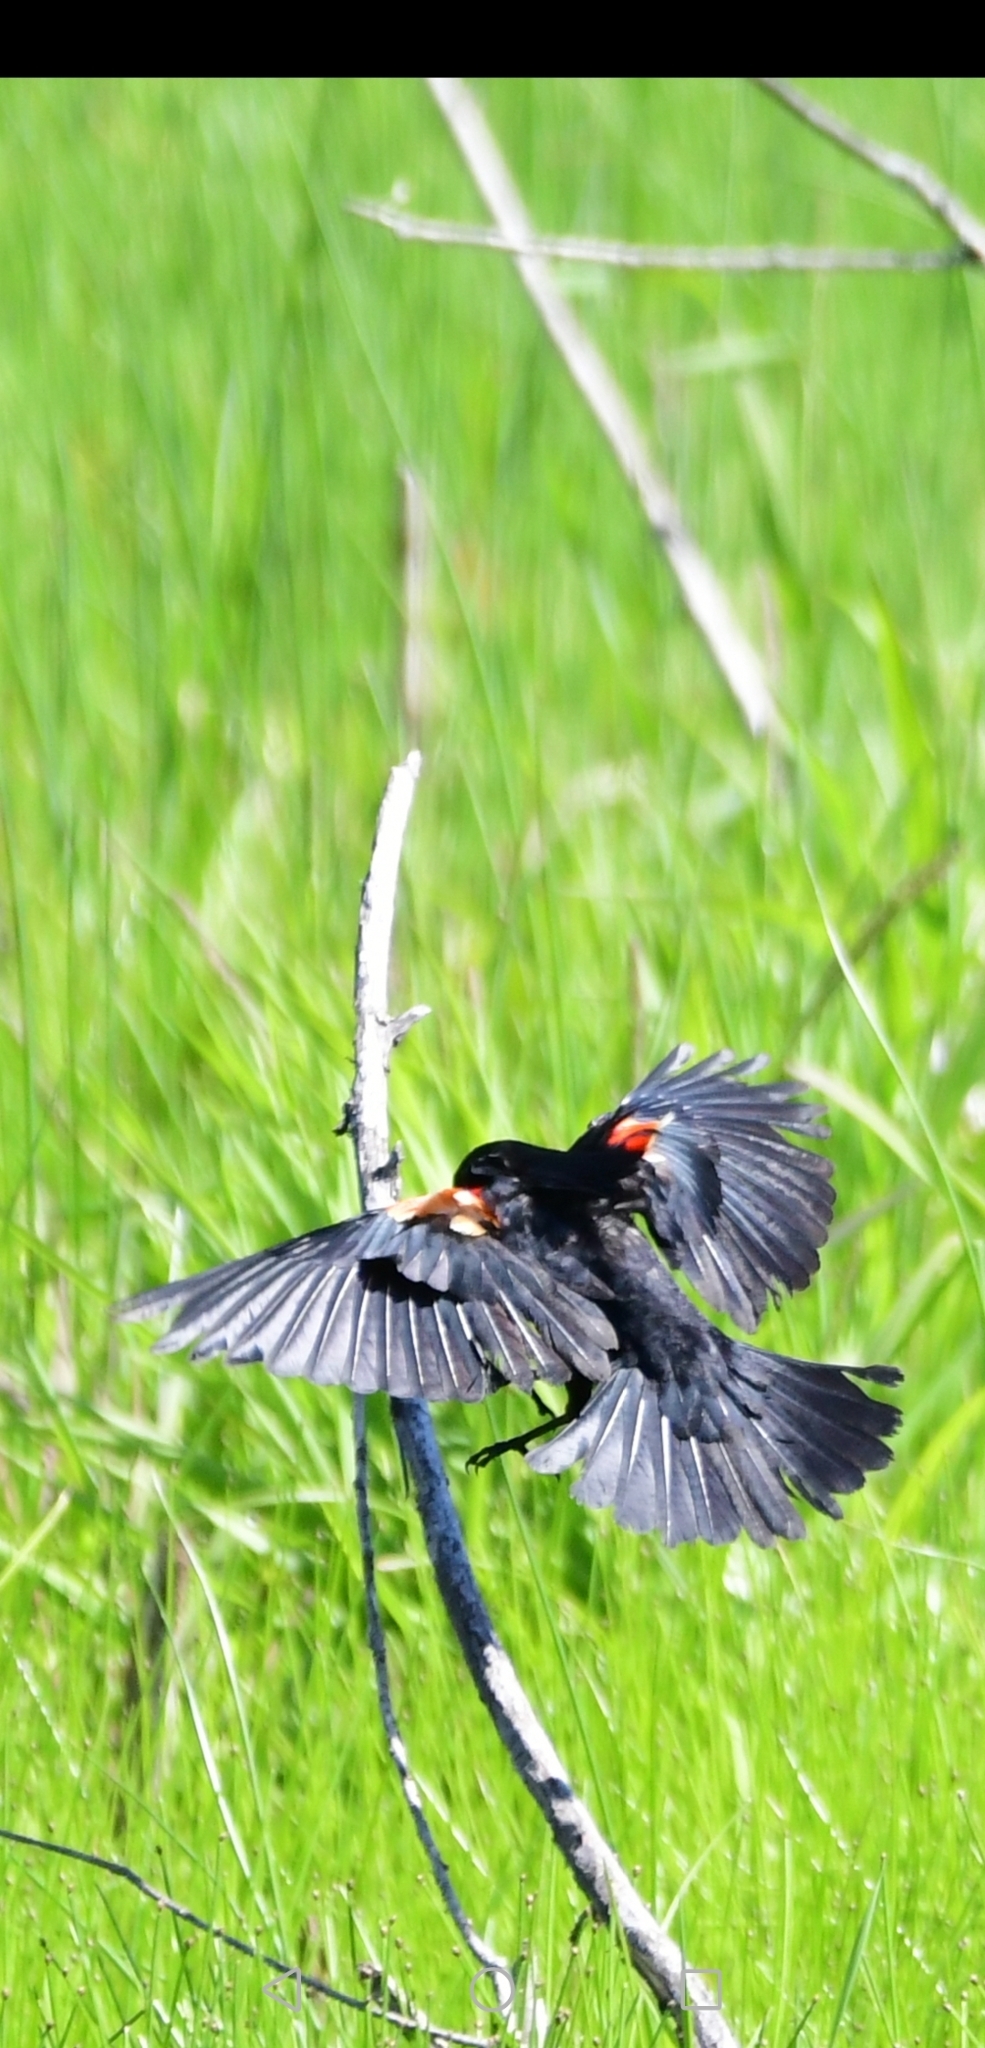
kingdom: Animalia
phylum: Chordata
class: Aves
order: Passeriformes
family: Icteridae
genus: Agelaius
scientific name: Agelaius phoeniceus
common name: Red-winged blackbird
